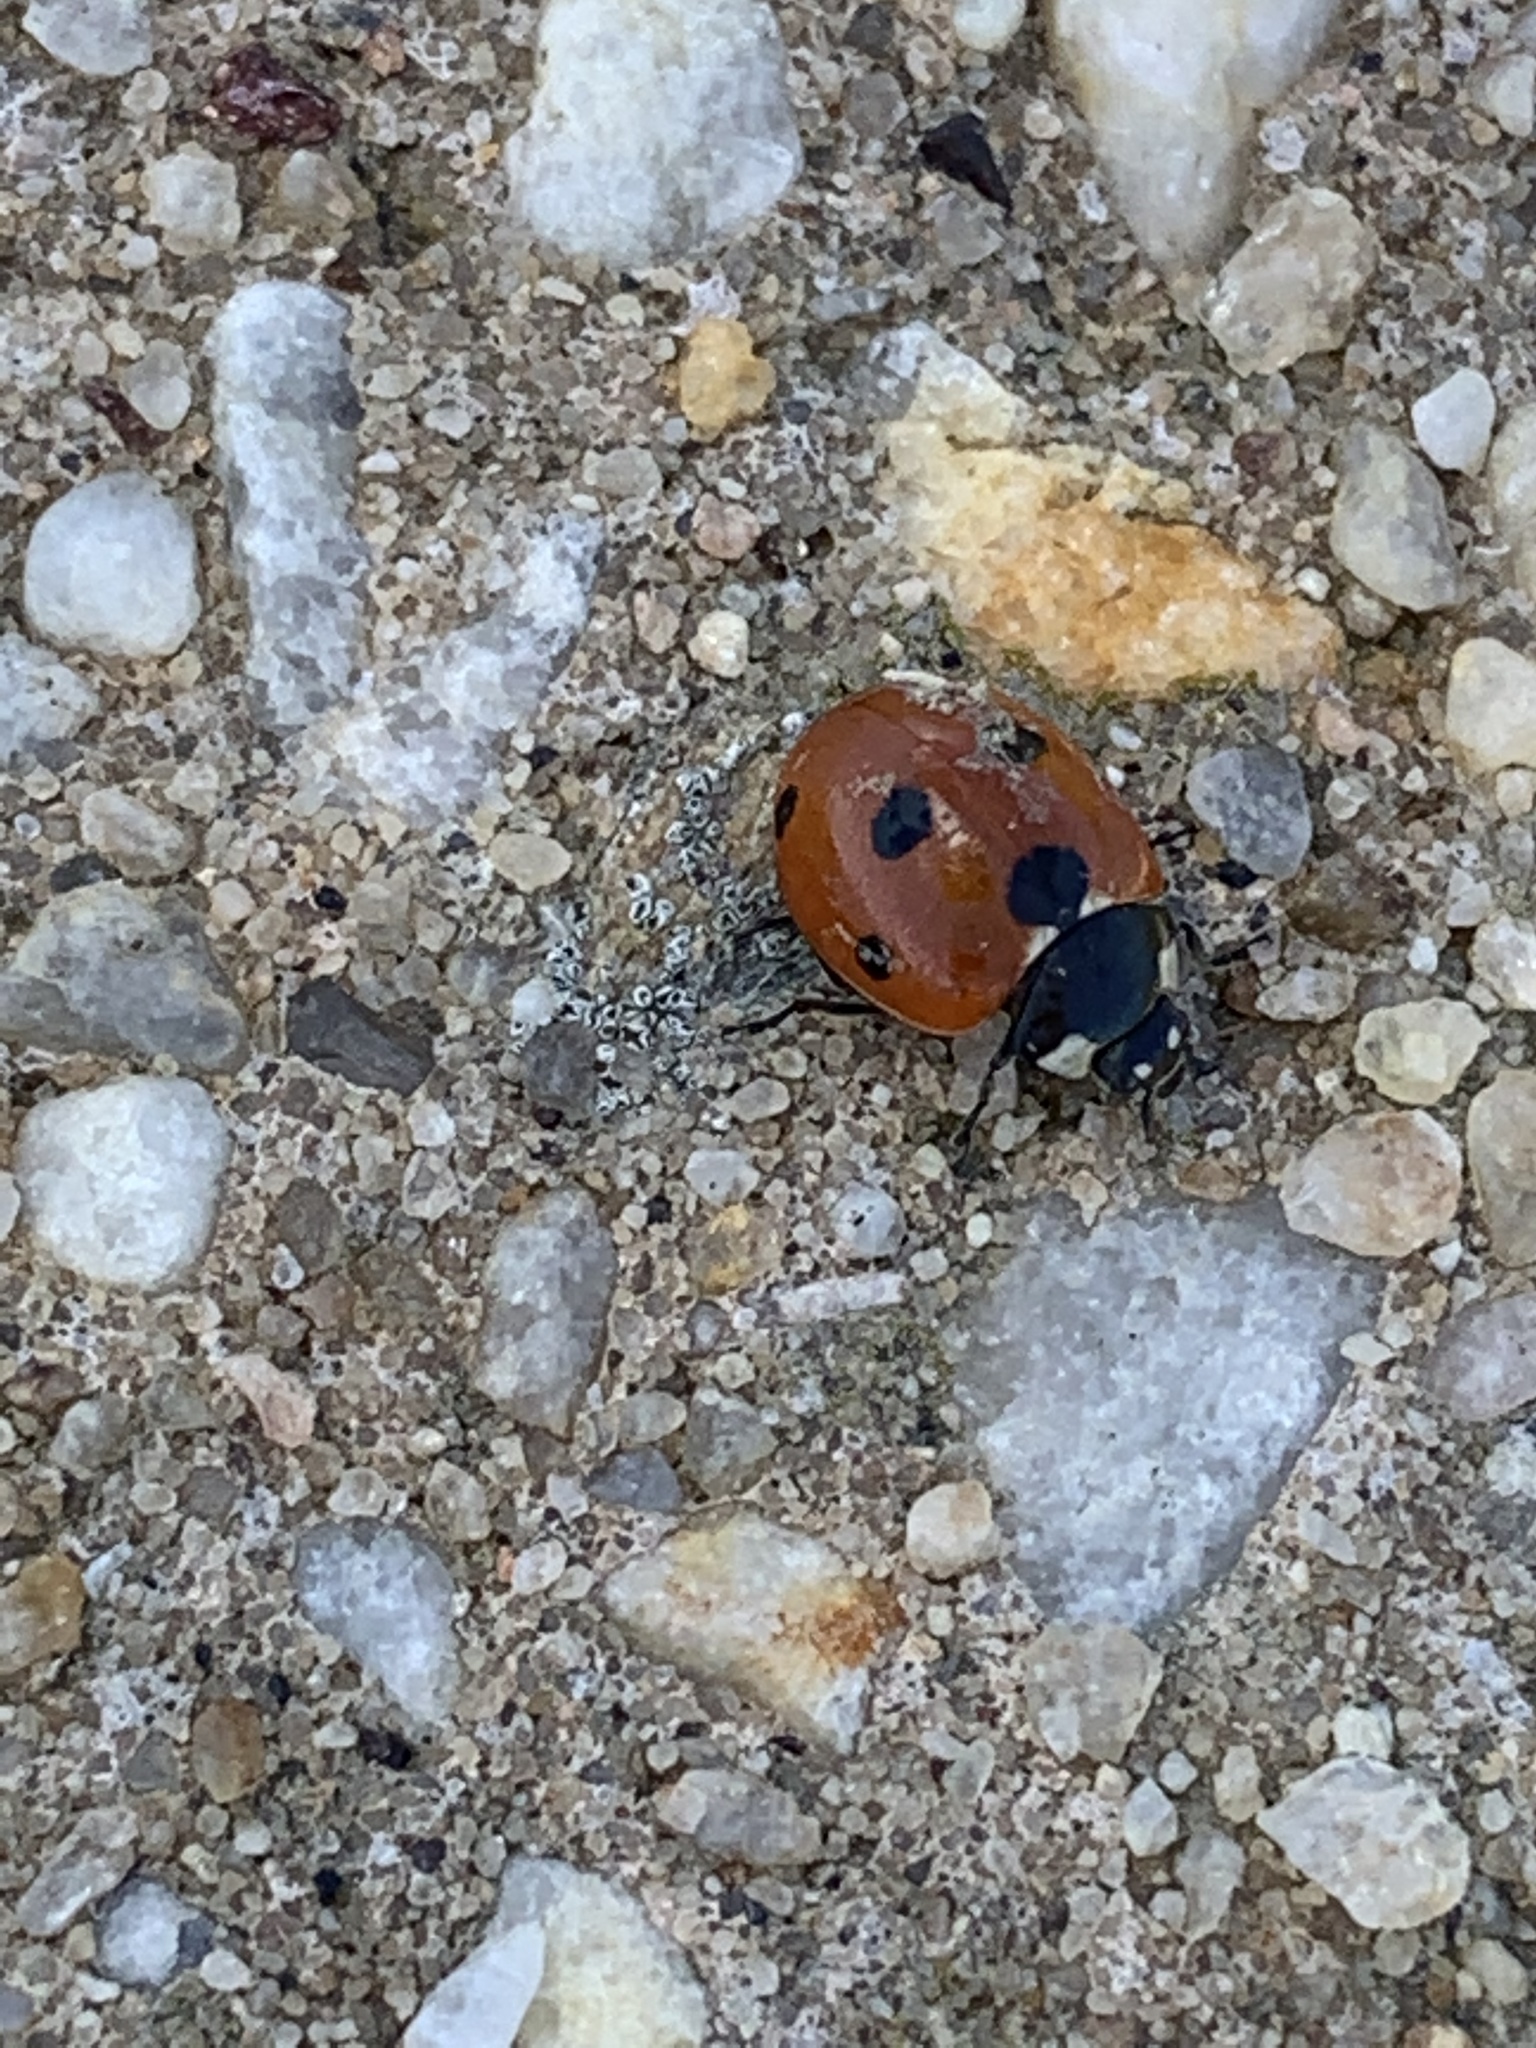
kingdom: Animalia
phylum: Arthropoda
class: Insecta
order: Coleoptera
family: Coccinellidae
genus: Coccinella
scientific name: Coccinella septempunctata
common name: Sevenspotted lady beetle
